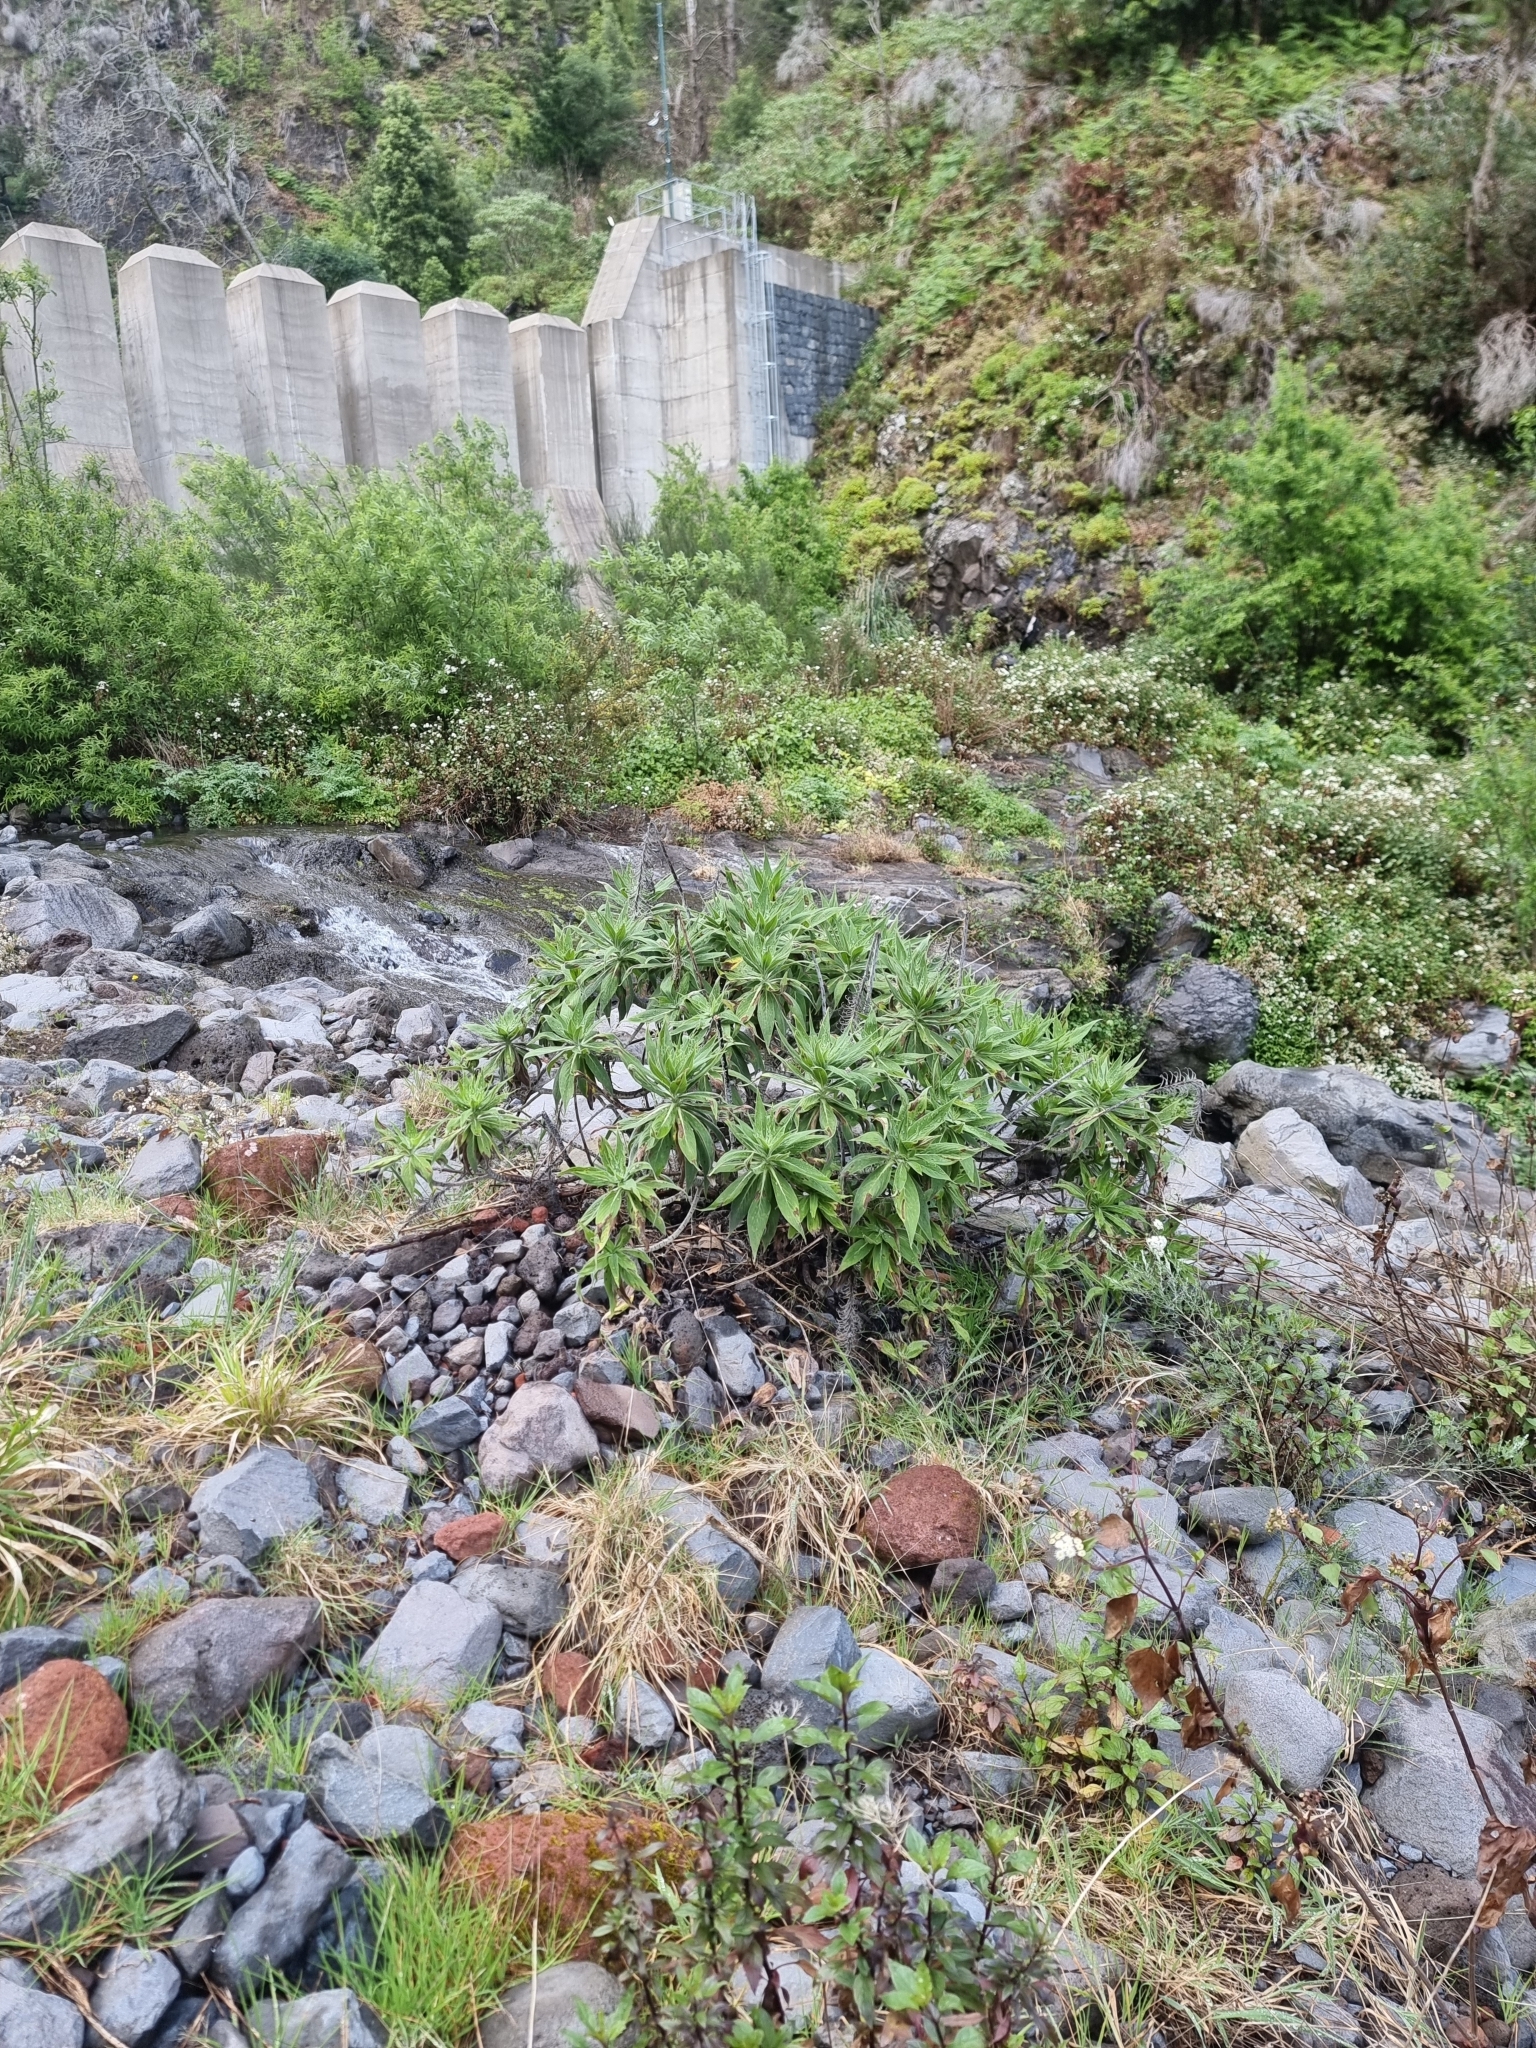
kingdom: Plantae
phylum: Tracheophyta
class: Magnoliopsida
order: Boraginales
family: Boraginaceae
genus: Echium
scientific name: Echium candicans
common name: Pride of madeira
